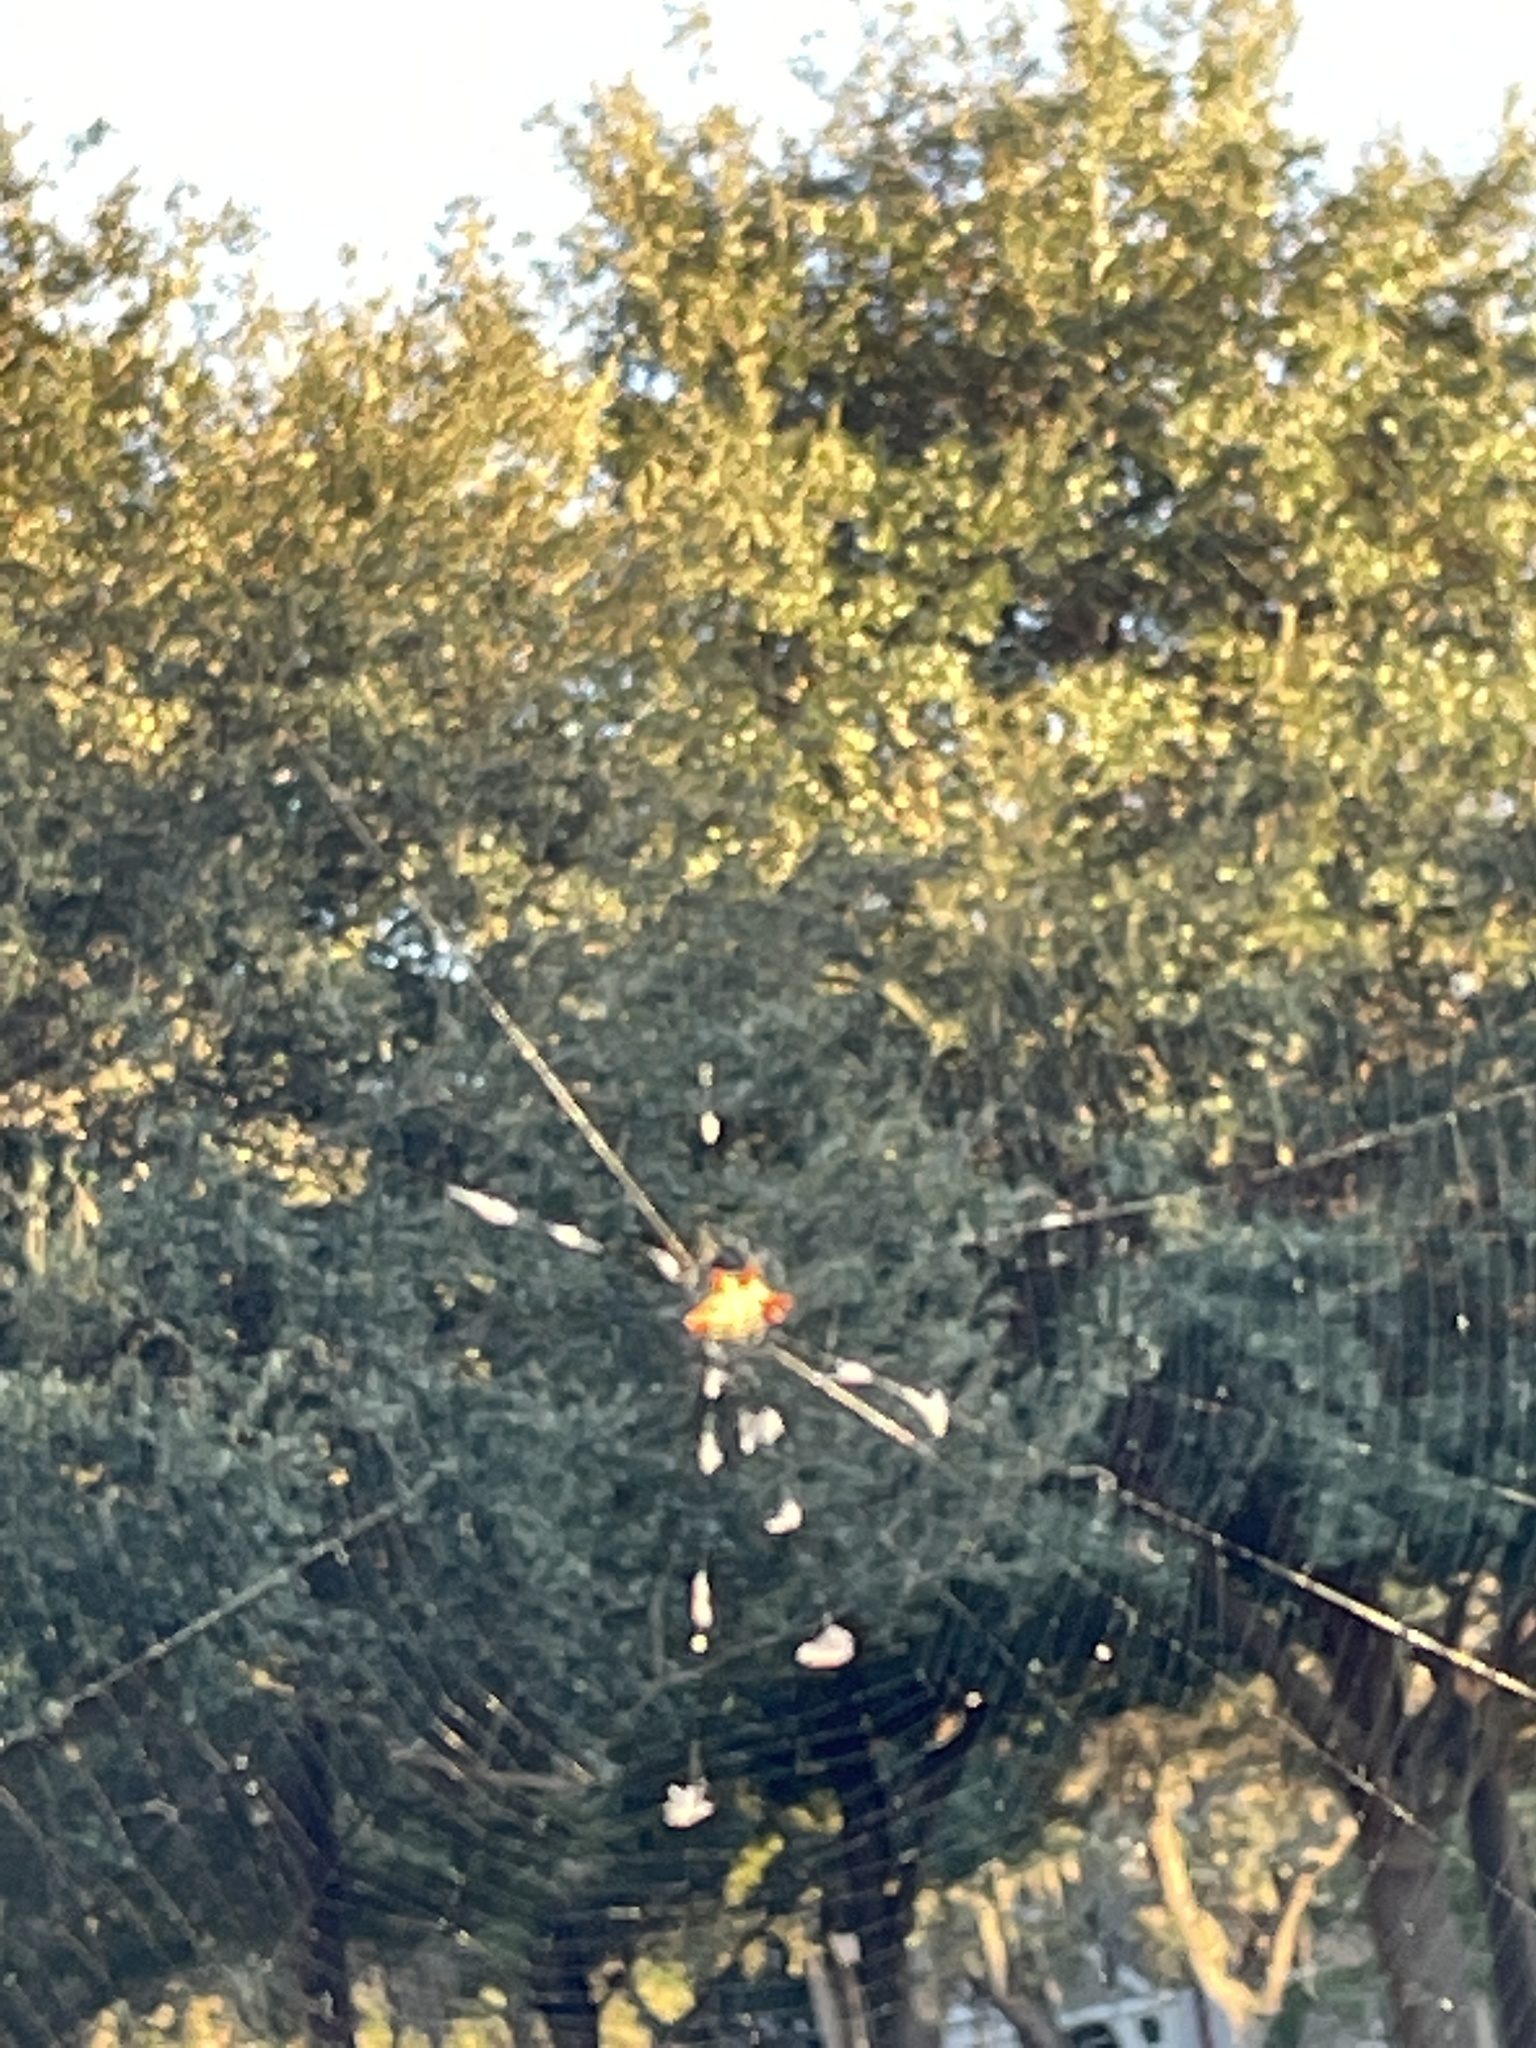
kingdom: Animalia
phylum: Arthropoda
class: Arachnida
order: Araneae
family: Araneidae
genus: Gasteracantha
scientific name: Gasteracantha cancriformis
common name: Orb weavers
